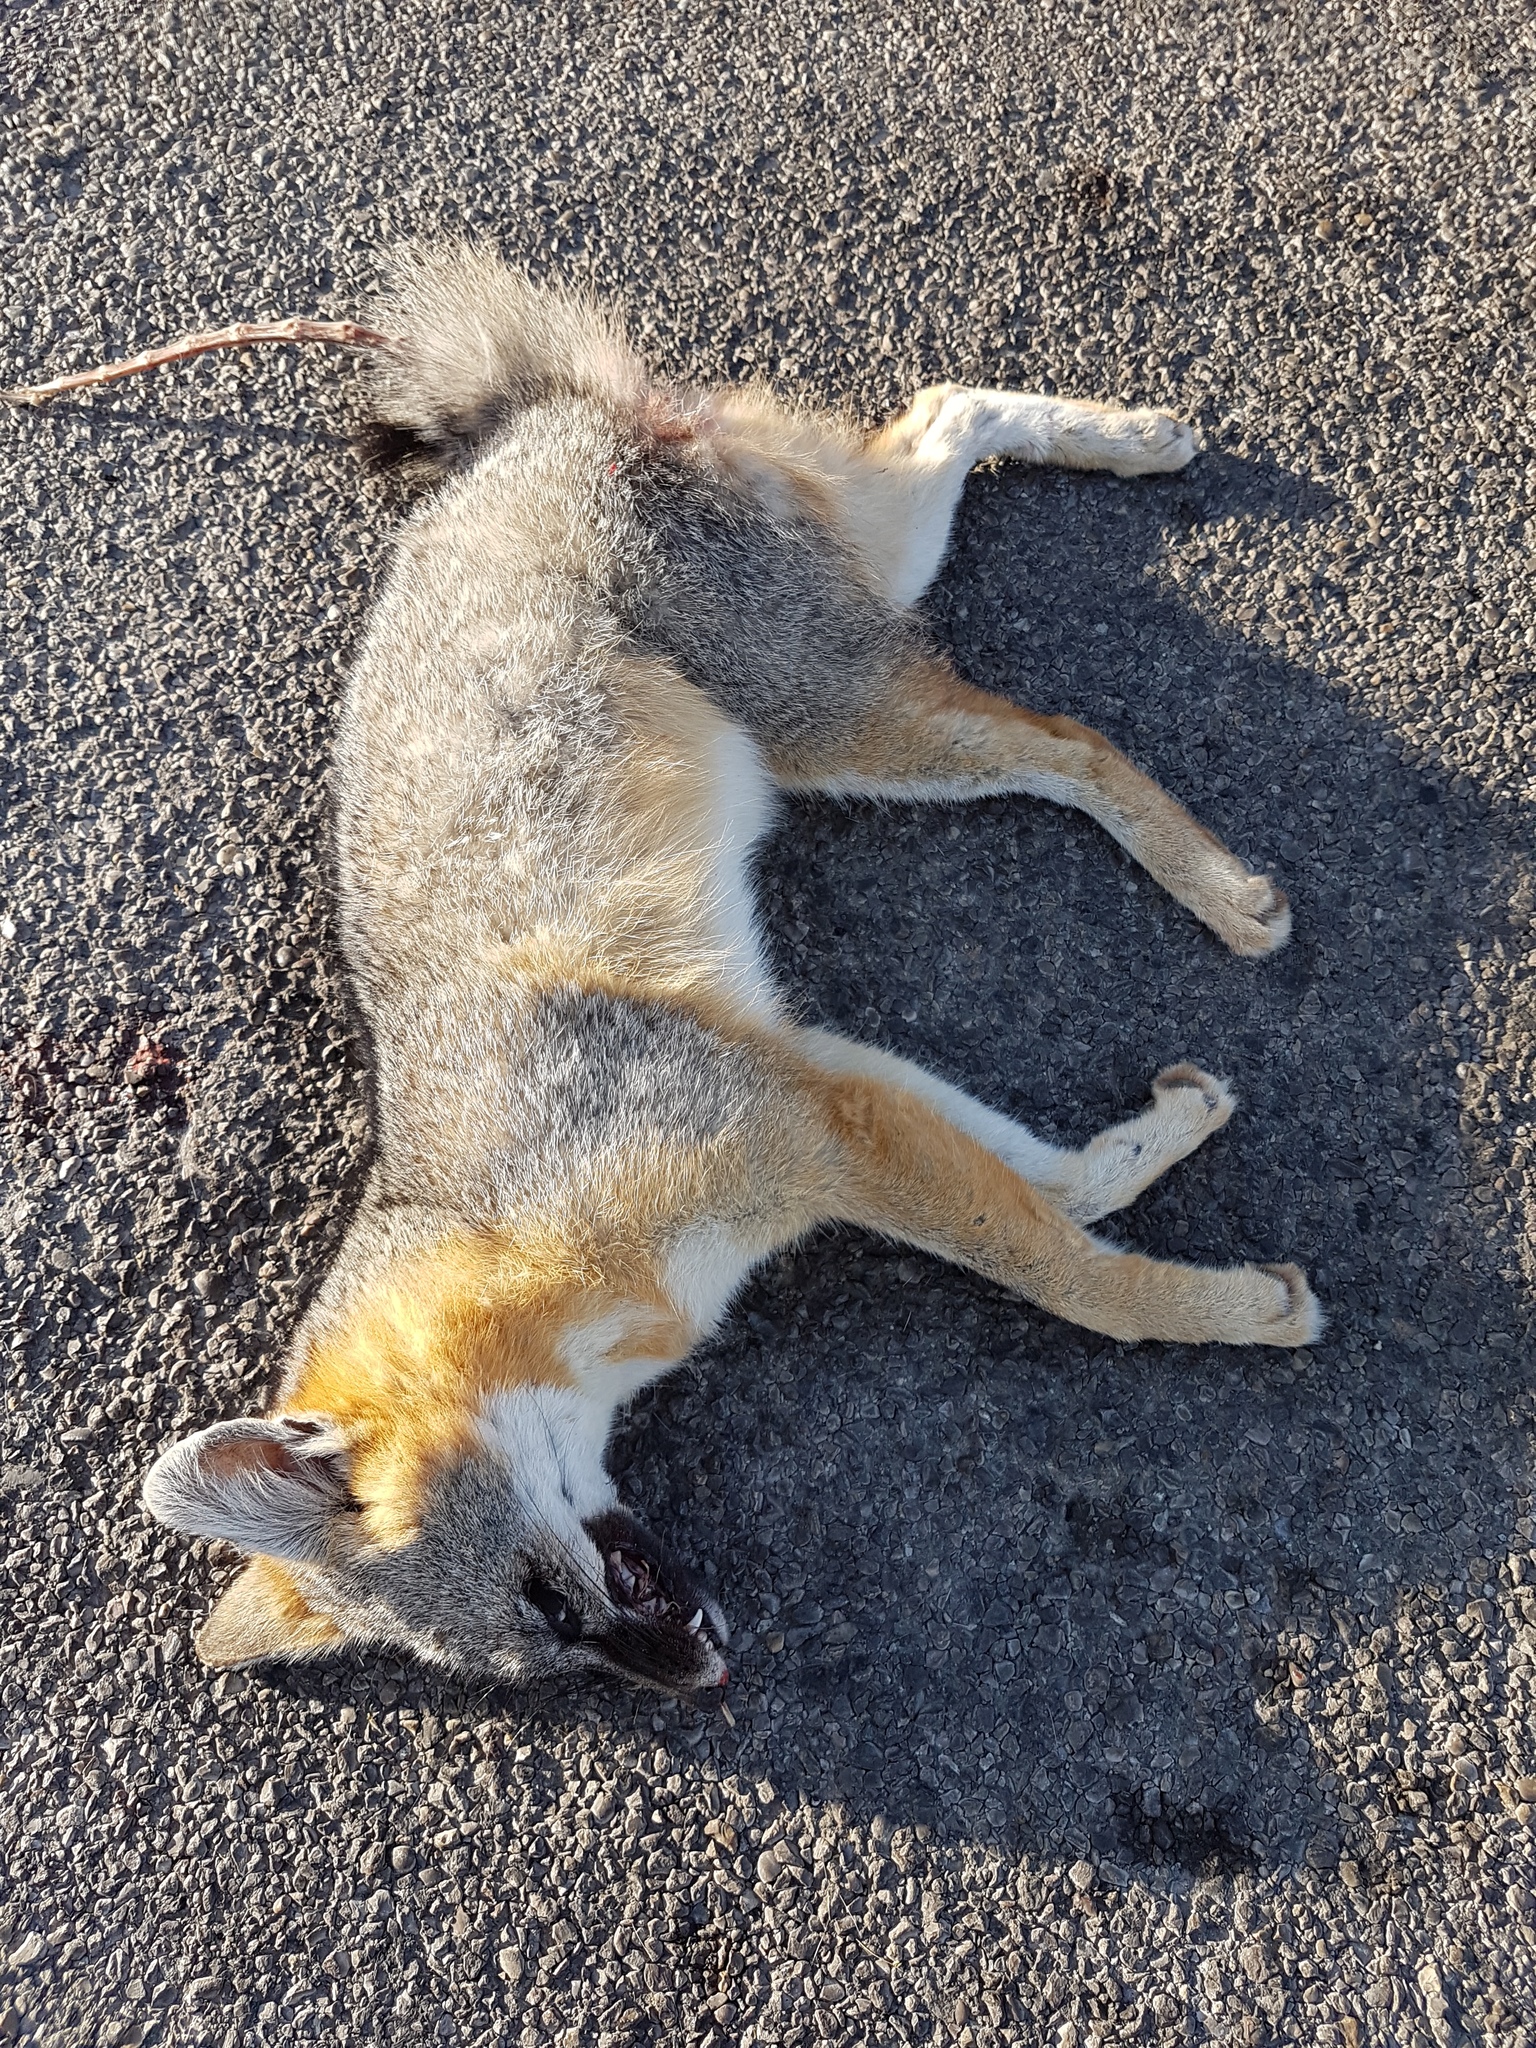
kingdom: Animalia
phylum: Chordata
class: Mammalia
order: Carnivora
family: Canidae
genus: Urocyon
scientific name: Urocyon cinereoargenteus
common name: Gray fox
